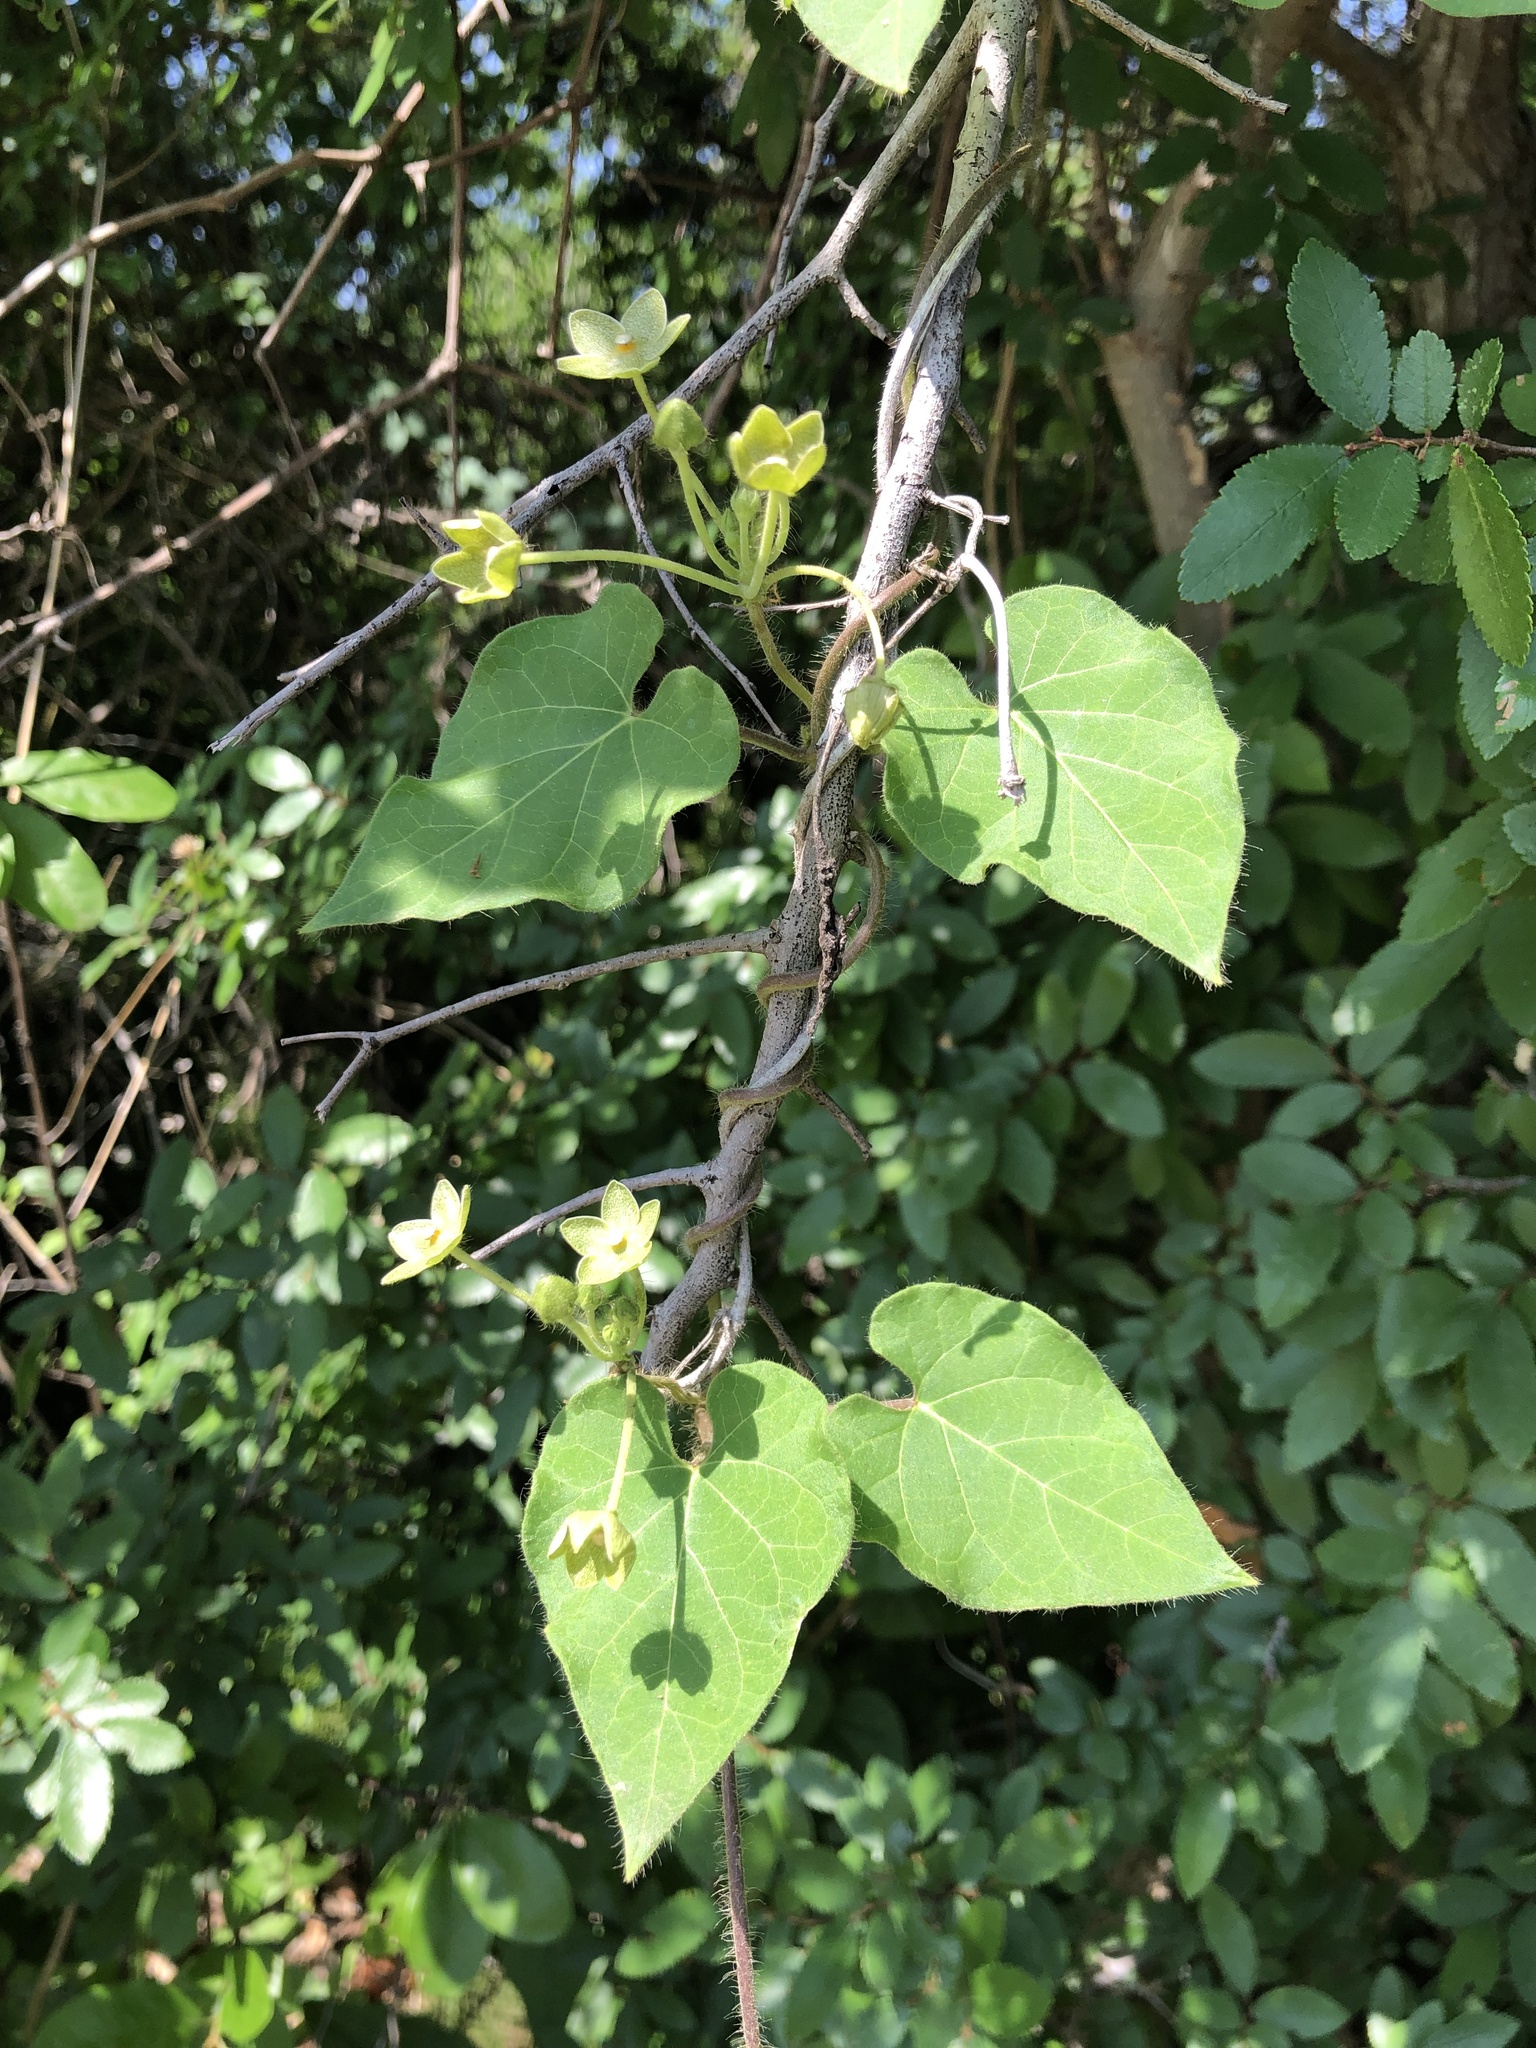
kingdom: Plantae
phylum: Tracheophyta
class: Magnoliopsida
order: Gentianales
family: Apocynaceae
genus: Dictyanthus
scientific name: Dictyanthus reticulatus
